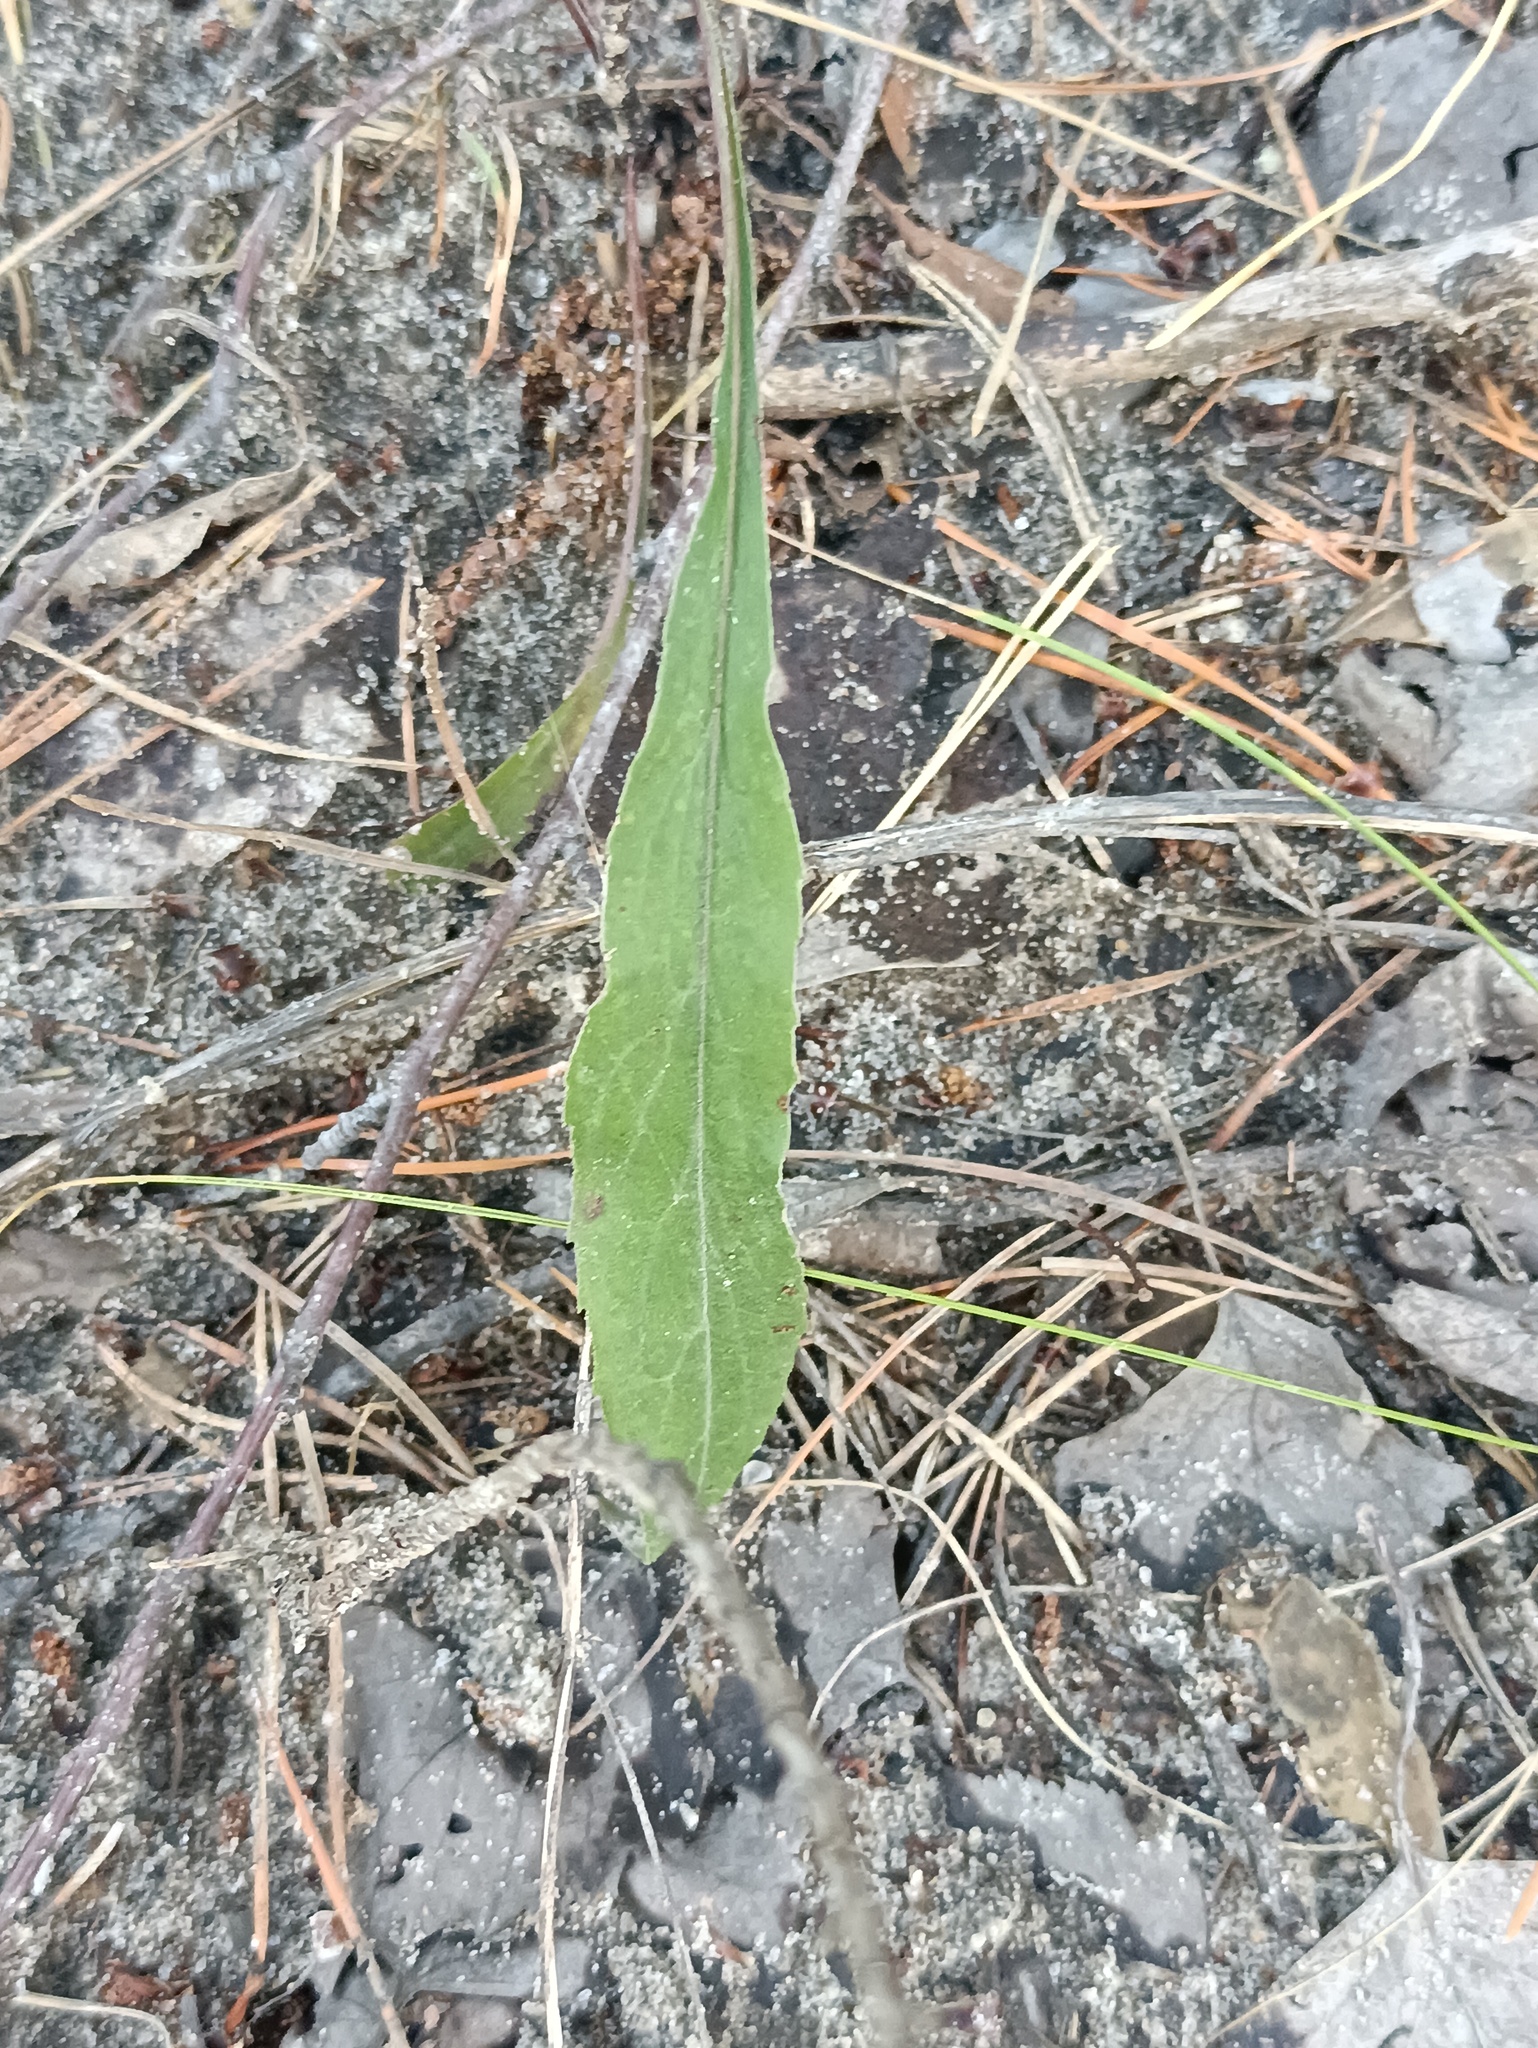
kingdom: Plantae
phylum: Tracheophyta
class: Magnoliopsida
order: Asterales
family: Asteraceae
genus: Solidago
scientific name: Solidago virgaurea
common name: Goldenrod
